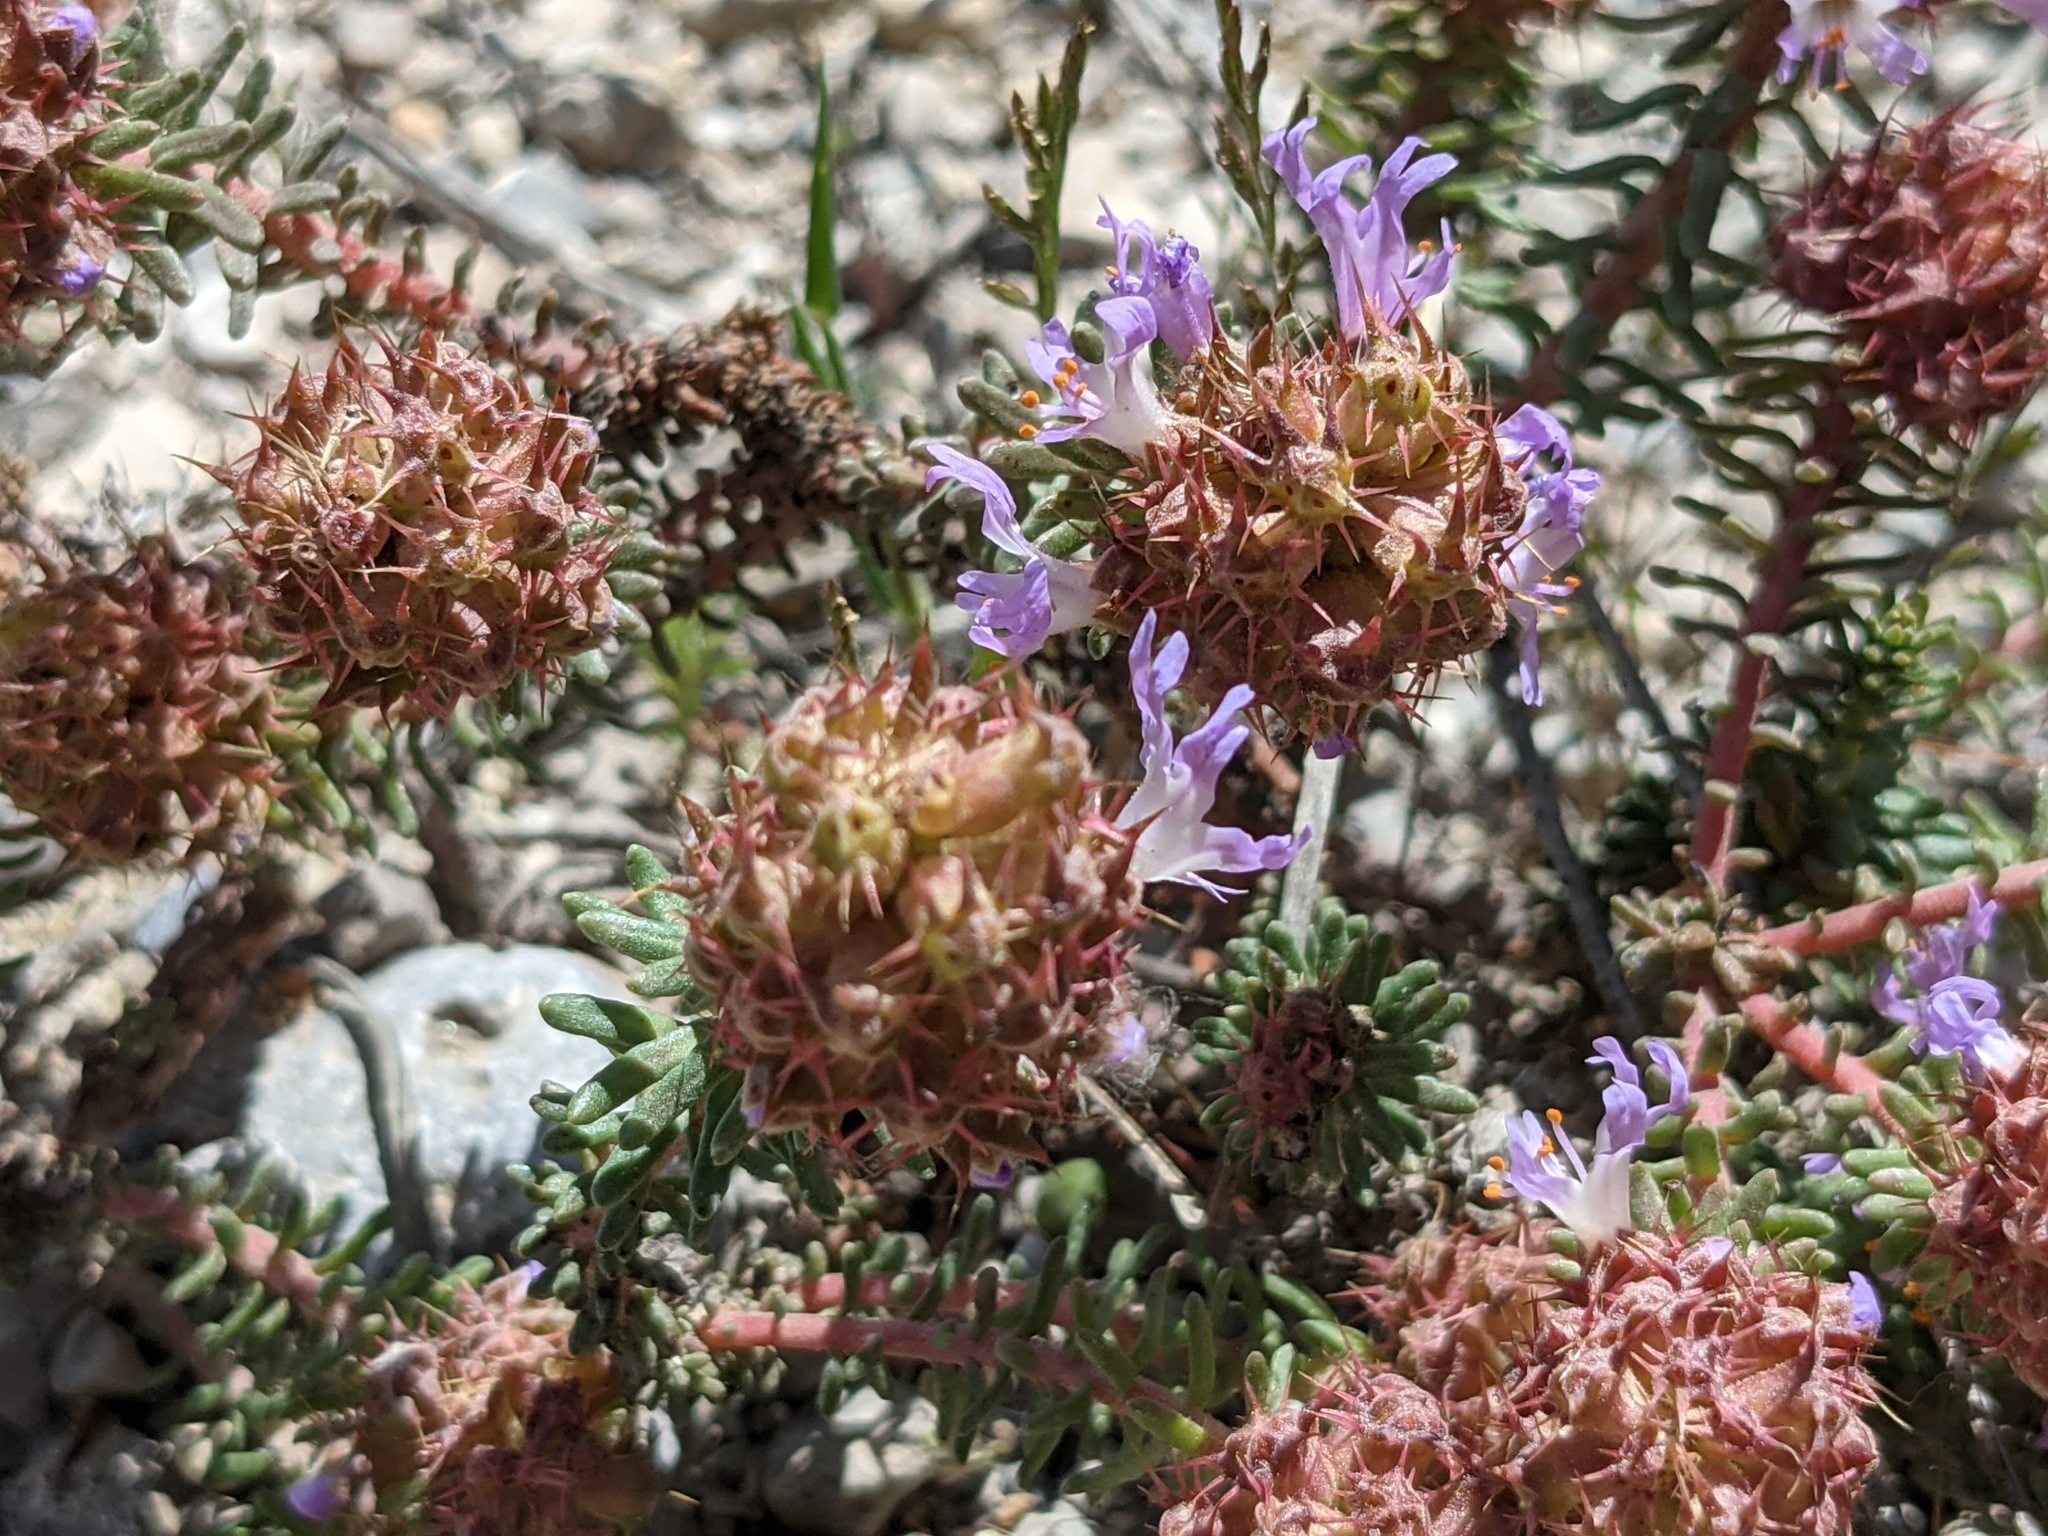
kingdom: Plantae
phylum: Tracheophyta
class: Magnoliopsida
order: Ericales
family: Primulaceae
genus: Coris
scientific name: Coris monspeliensis
